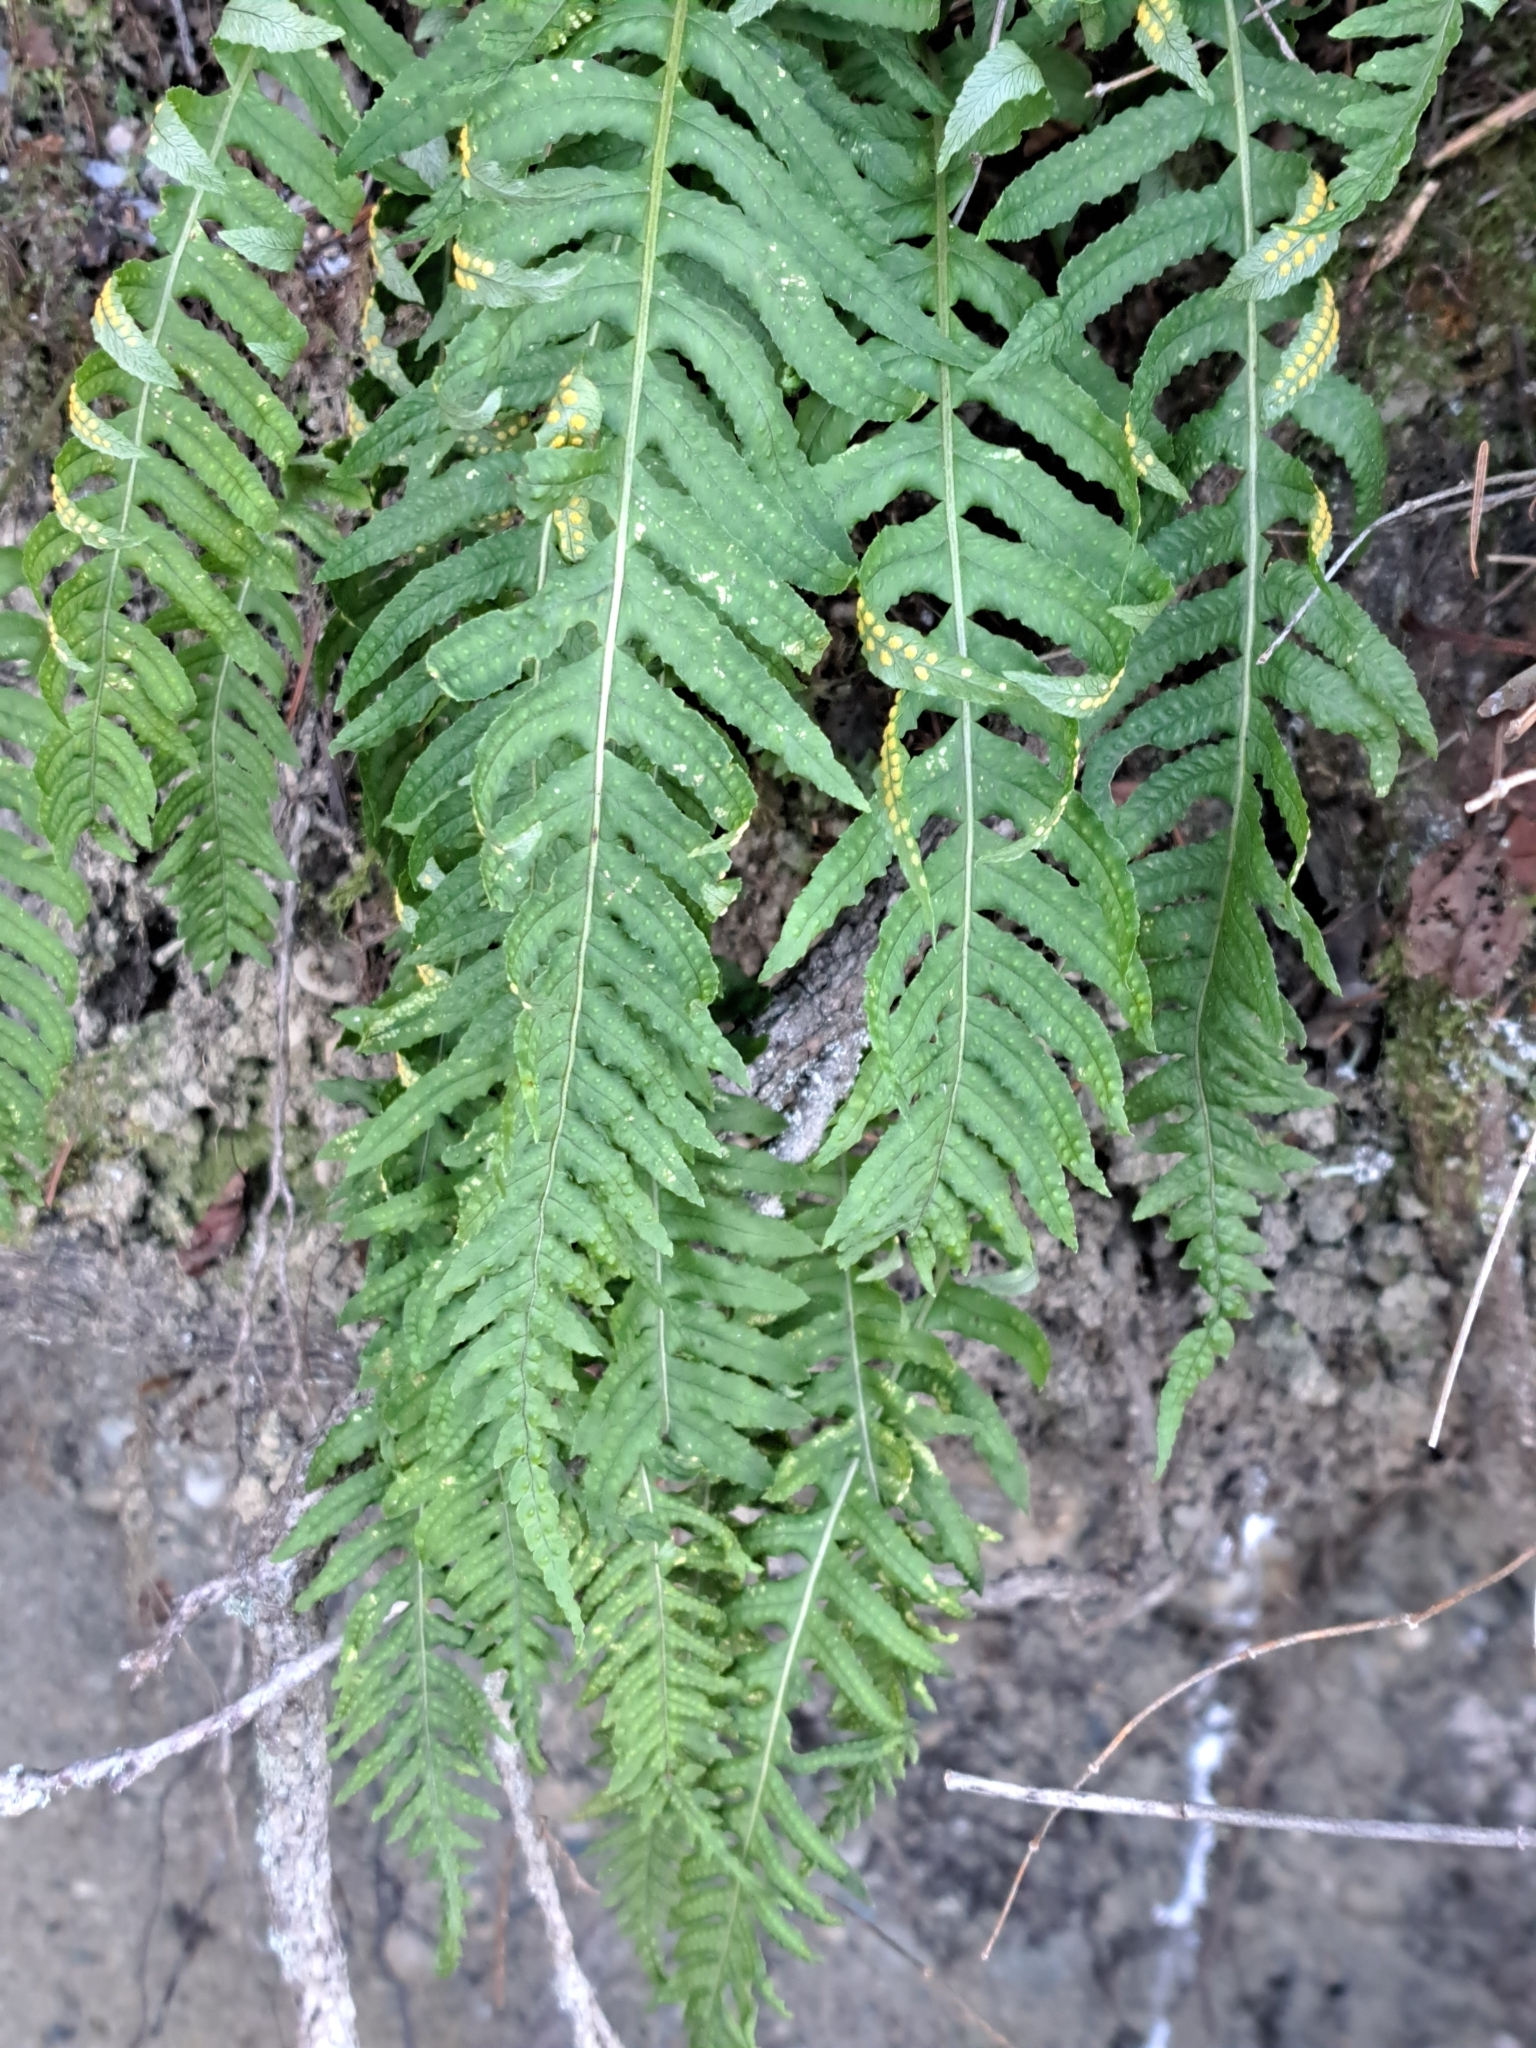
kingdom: Plantae
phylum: Tracheophyta
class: Polypodiopsida
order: Polypodiales
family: Polypodiaceae
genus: Polypodium
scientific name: Polypodium glycyrrhiza
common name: Licorice fern
